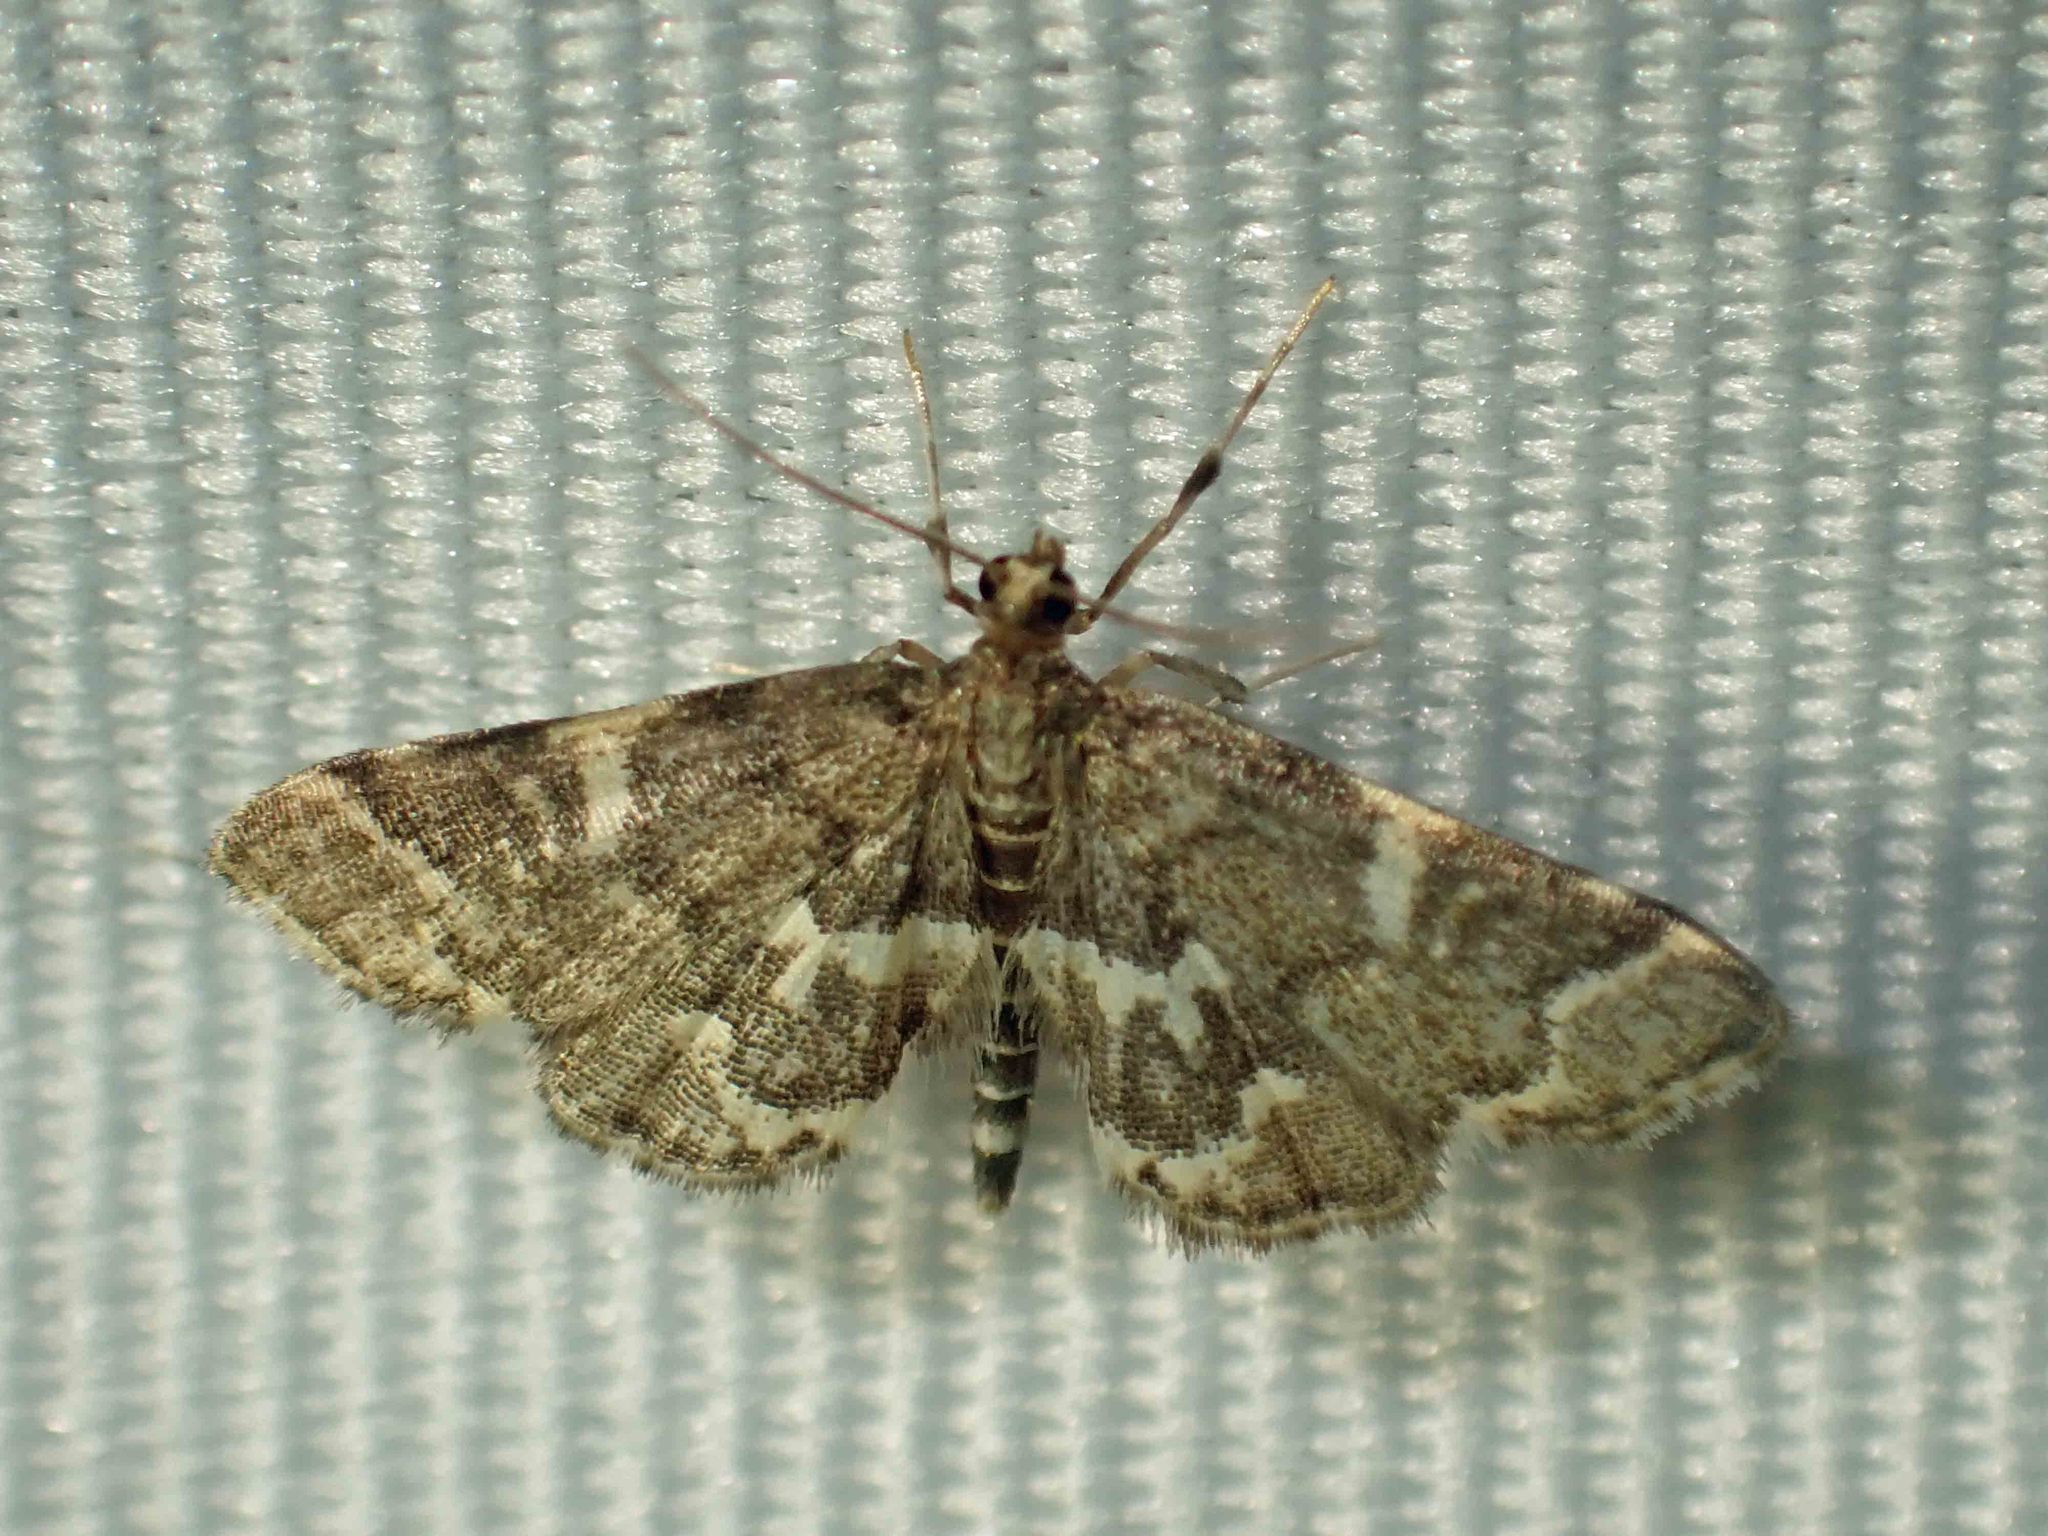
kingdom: Animalia
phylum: Arthropoda
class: Insecta
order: Lepidoptera
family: Crambidae
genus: Anageshna
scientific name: Anageshna primordialis
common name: Yellow-spotted webworm moth
